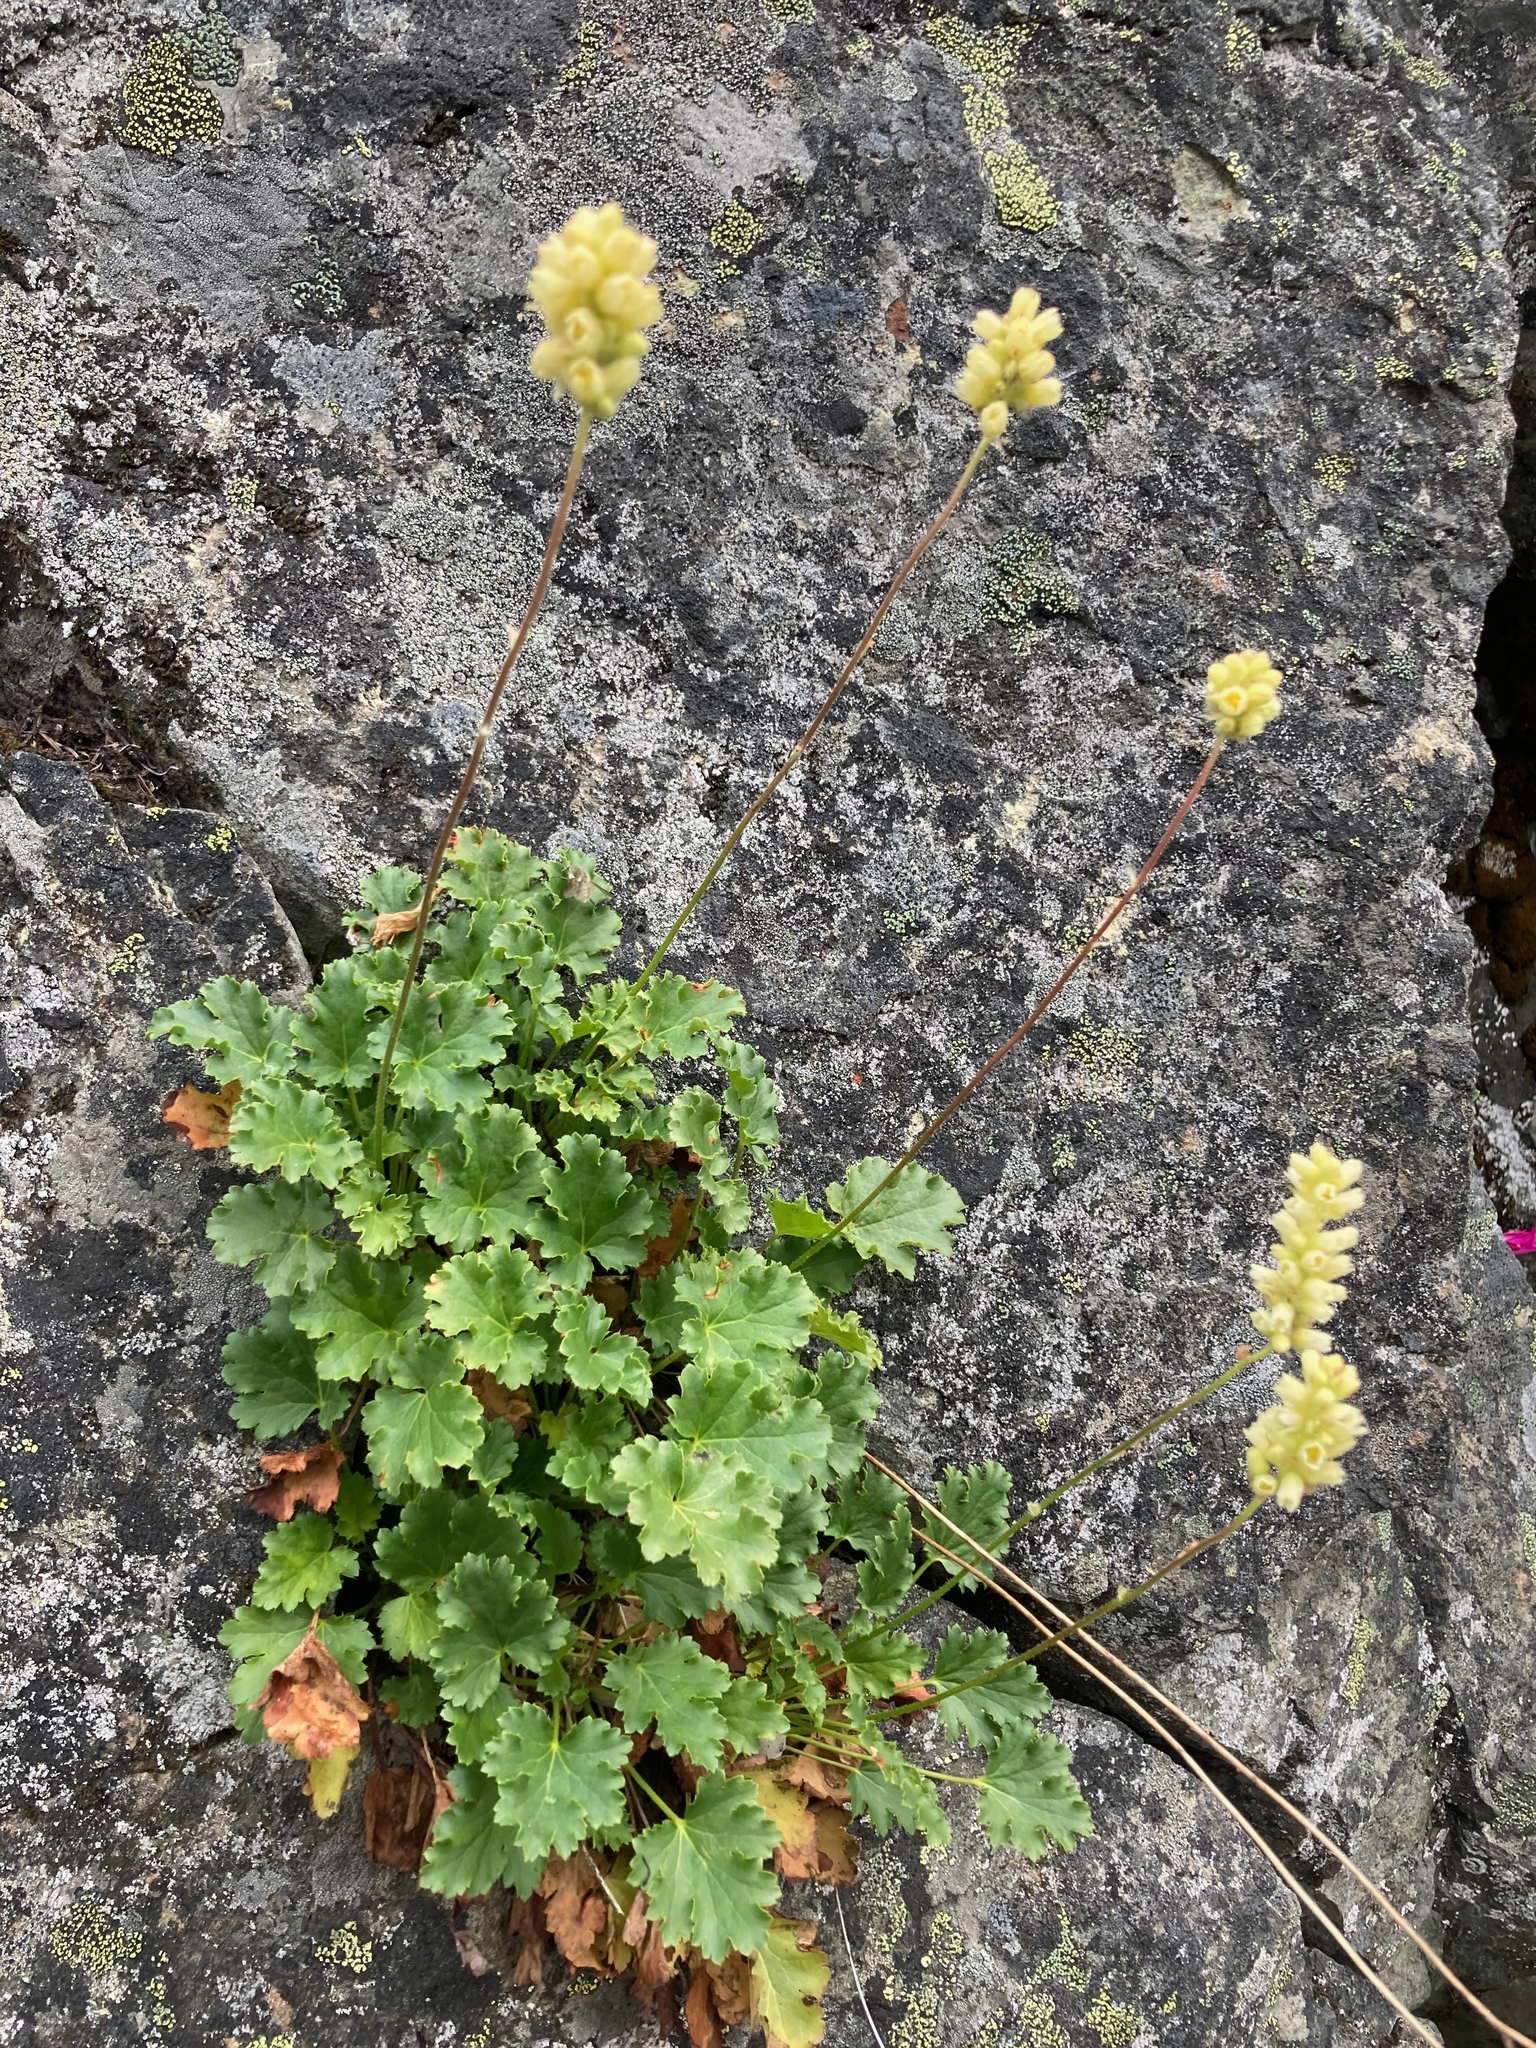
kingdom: Plantae
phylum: Tracheophyta
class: Magnoliopsida
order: Saxifragales
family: Saxifragaceae
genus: Heuchera
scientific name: Heuchera cylindrica
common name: Mat alumroot
